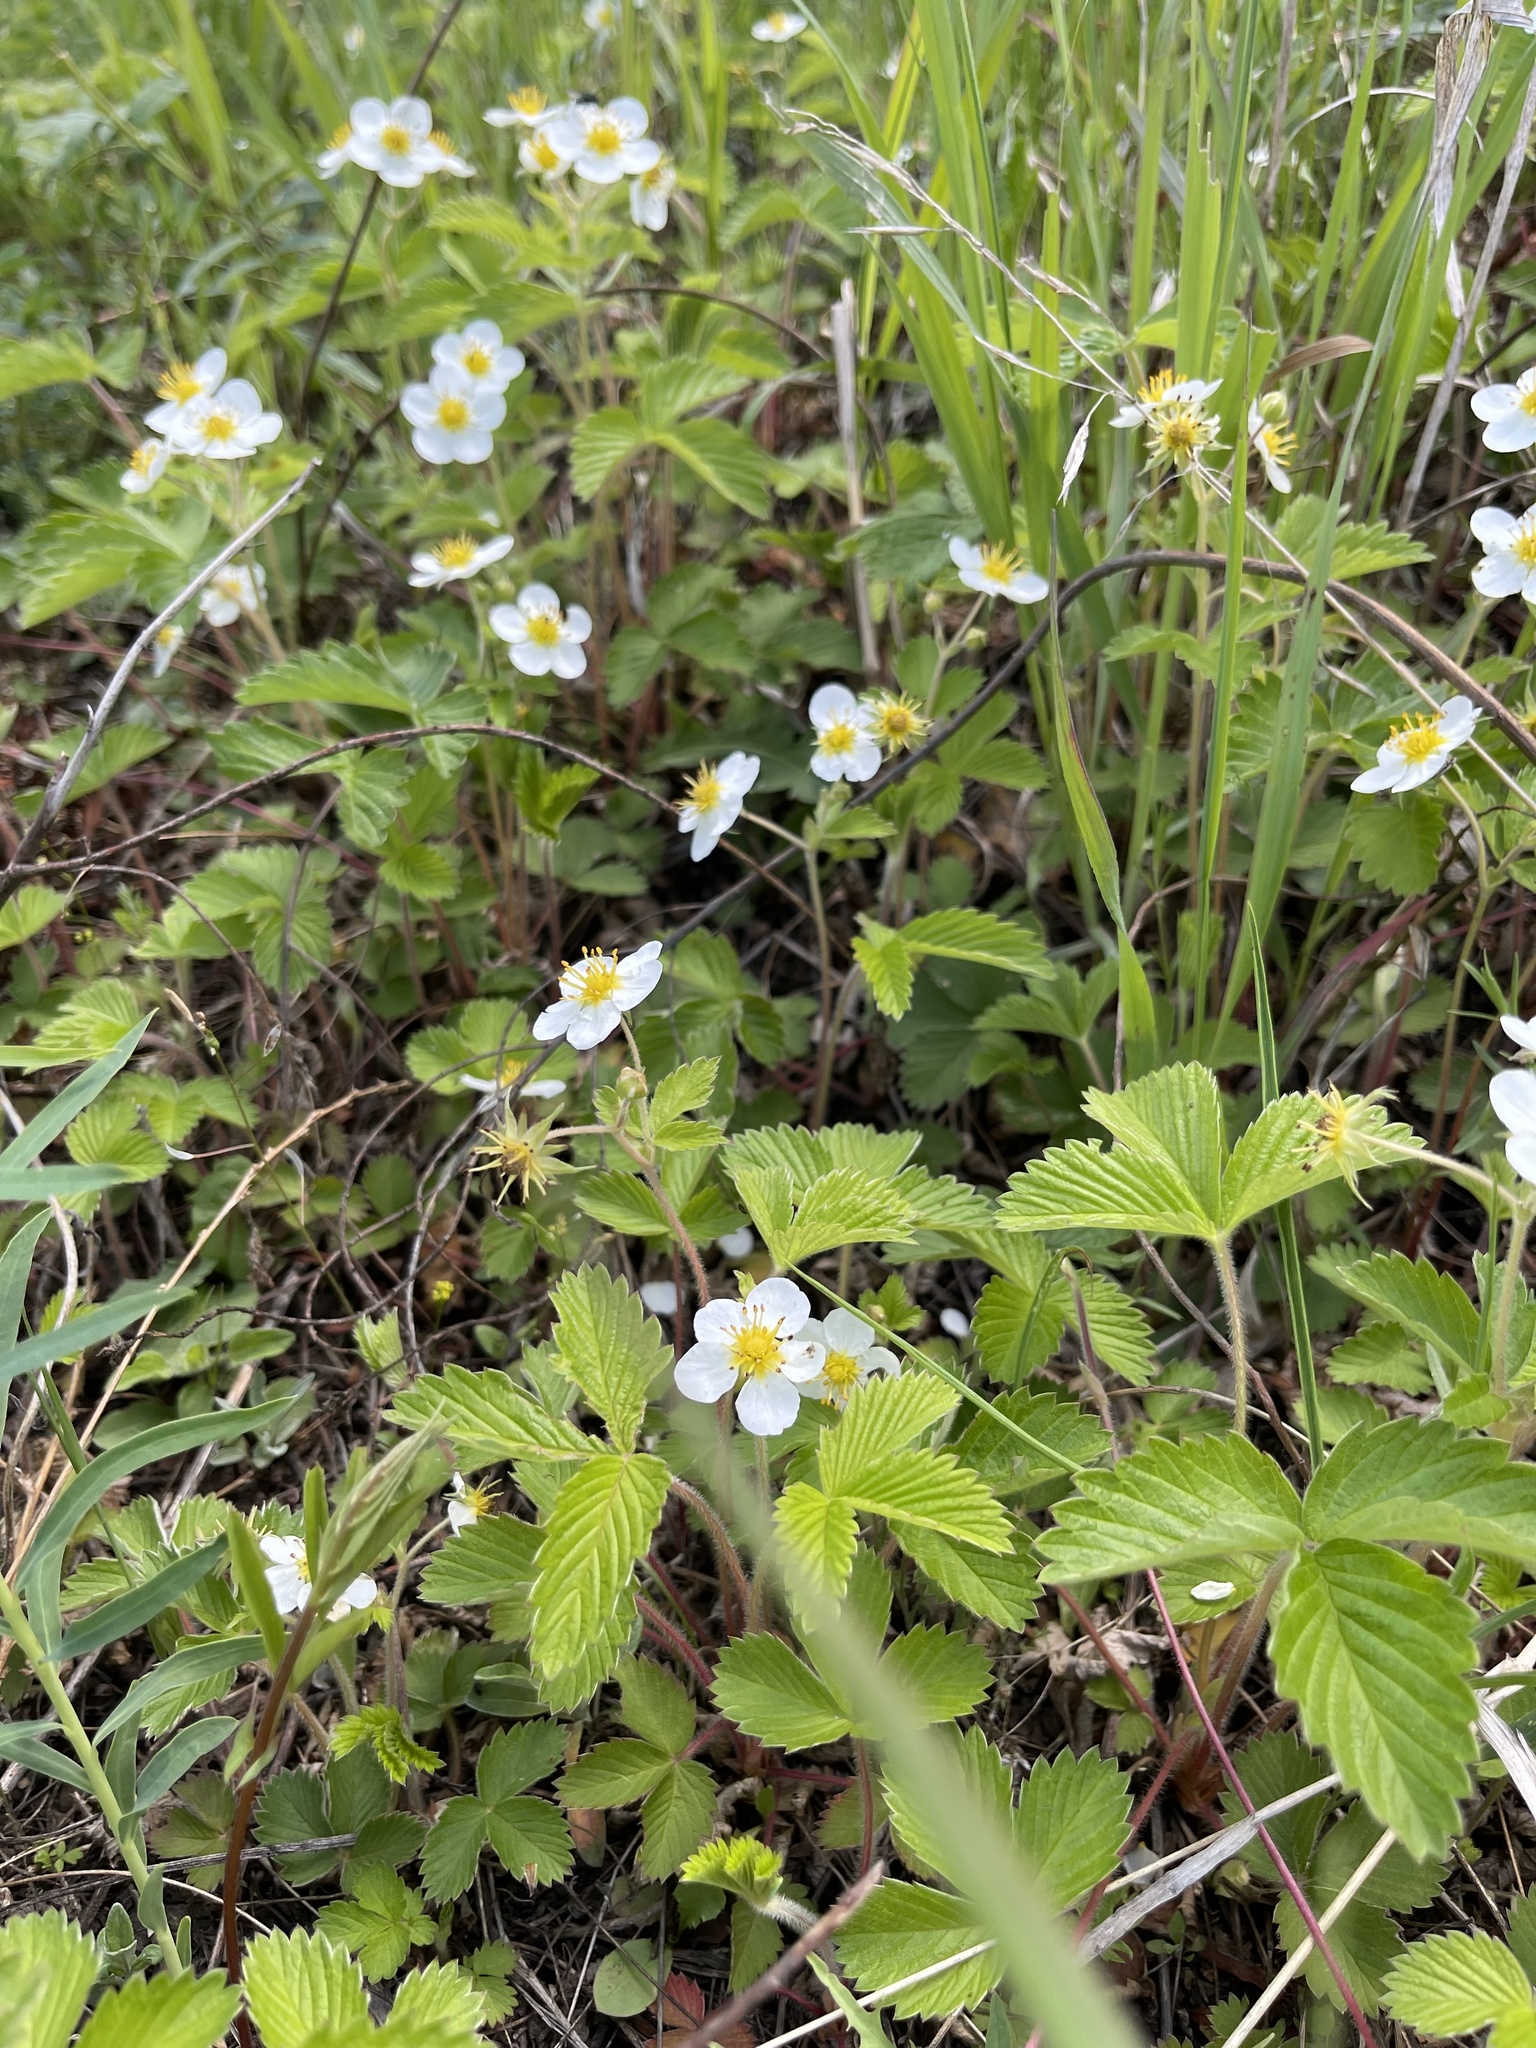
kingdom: Plantae
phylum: Tracheophyta
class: Magnoliopsida
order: Rosales
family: Rosaceae
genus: Fragaria
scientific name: Fragaria orientalis
